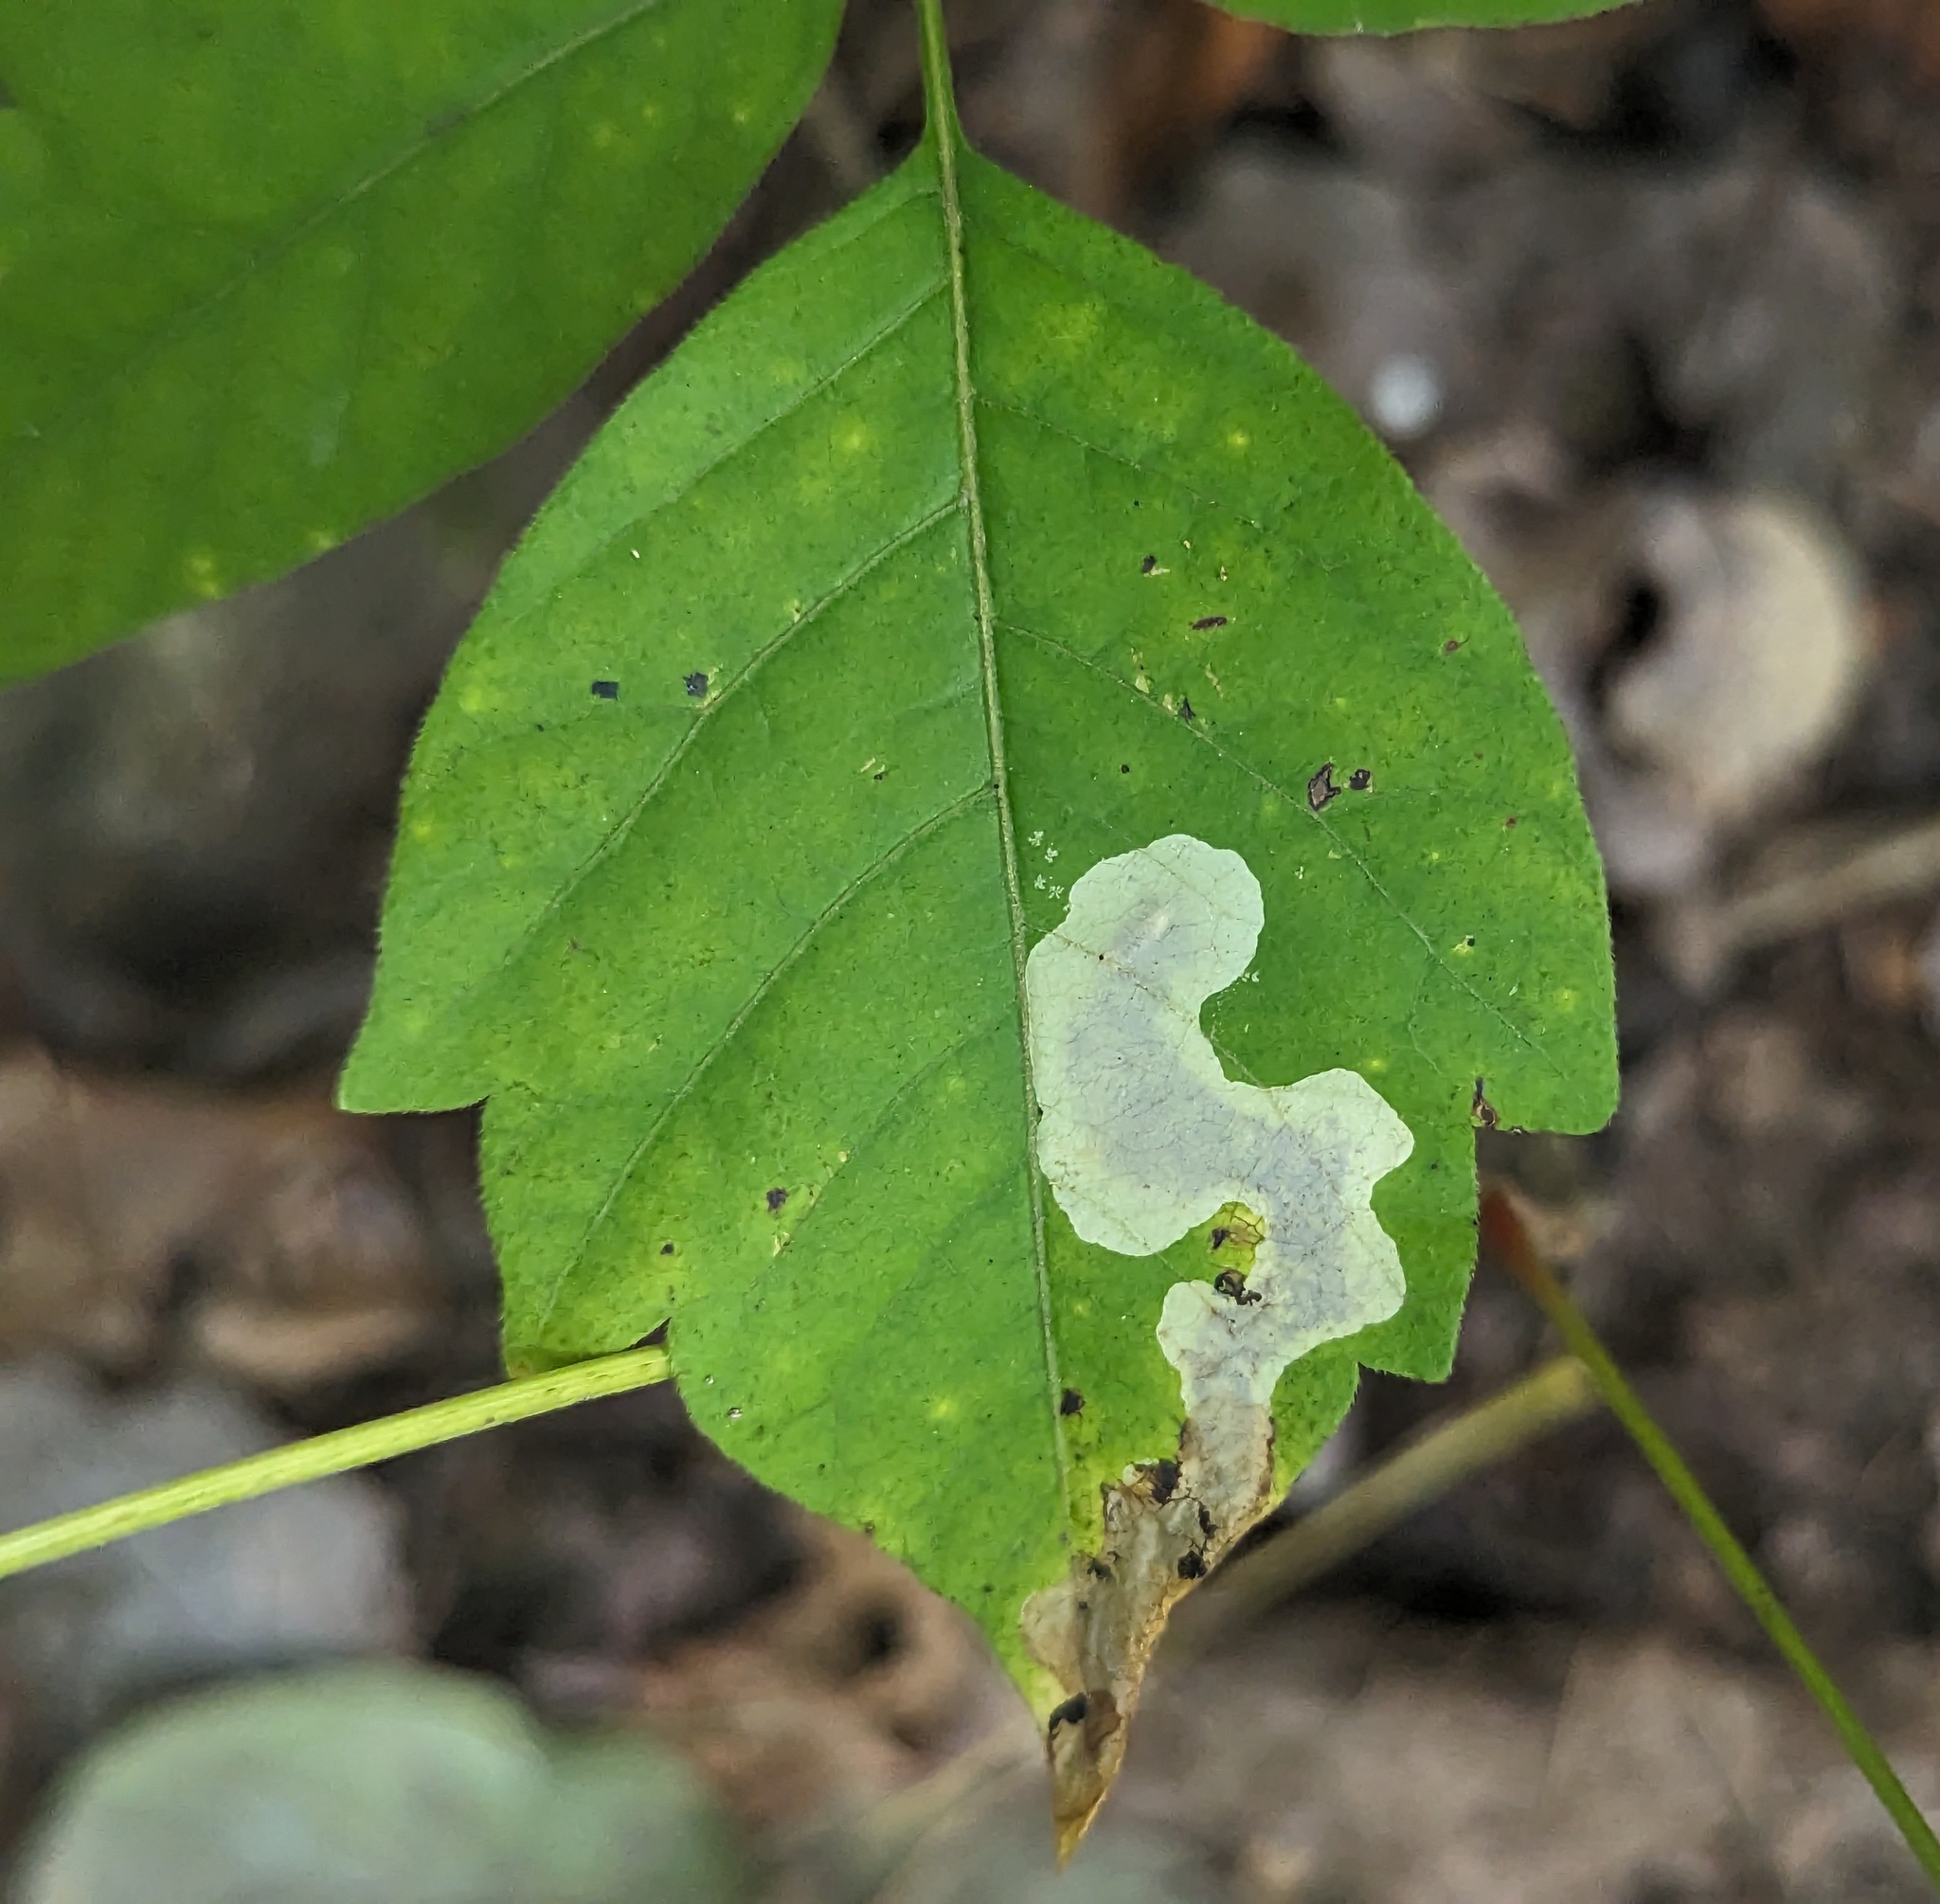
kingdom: Animalia
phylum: Arthropoda
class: Insecta
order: Lepidoptera
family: Gracillariidae
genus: Cameraria
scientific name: Cameraria guttifinitella
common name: Poison ivy leaf-miner moth
